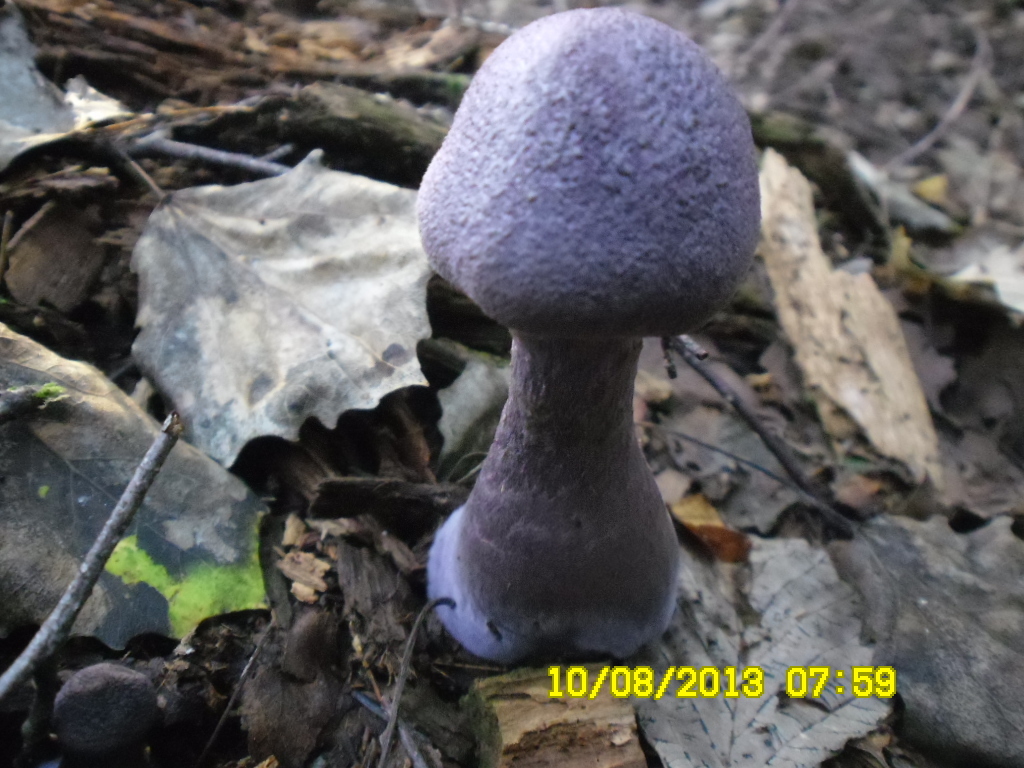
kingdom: Fungi
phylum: Basidiomycota
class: Agaricomycetes
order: Agaricales
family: Cortinariaceae
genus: Cortinarius
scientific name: Cortinarius violaceus
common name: Violet webcap
